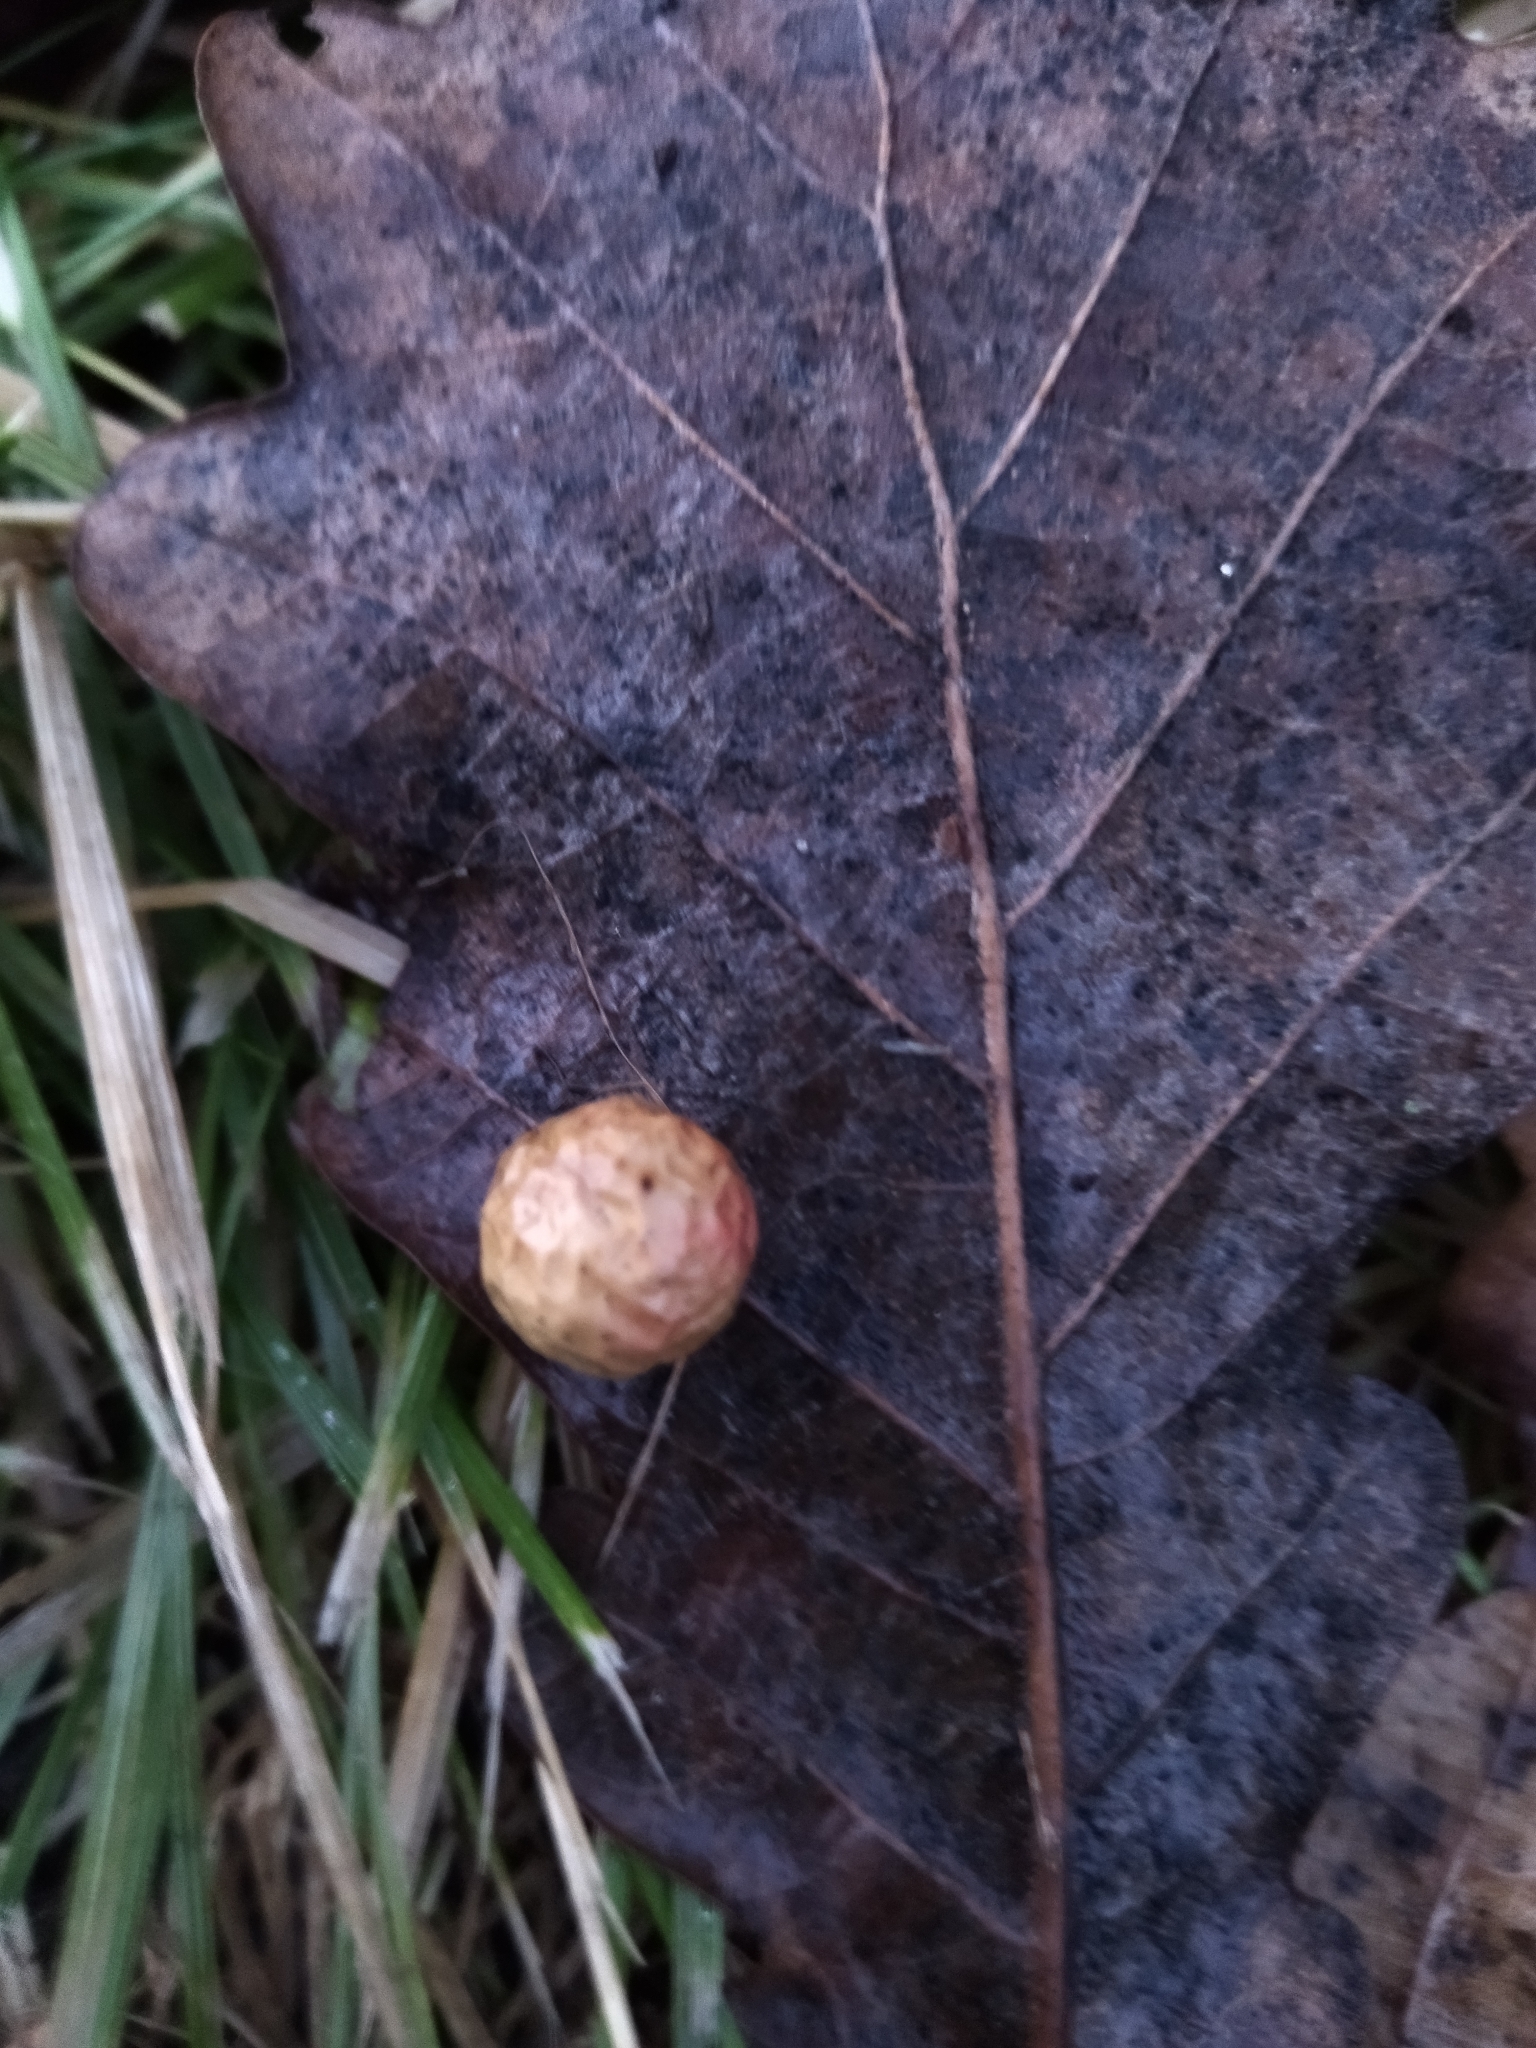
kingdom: Animalia
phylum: Arthropoda
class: Insecta
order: Hymenoptera
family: Cynipidae
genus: Cynips
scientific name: Cynips quercusfolii
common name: Cherry gall
